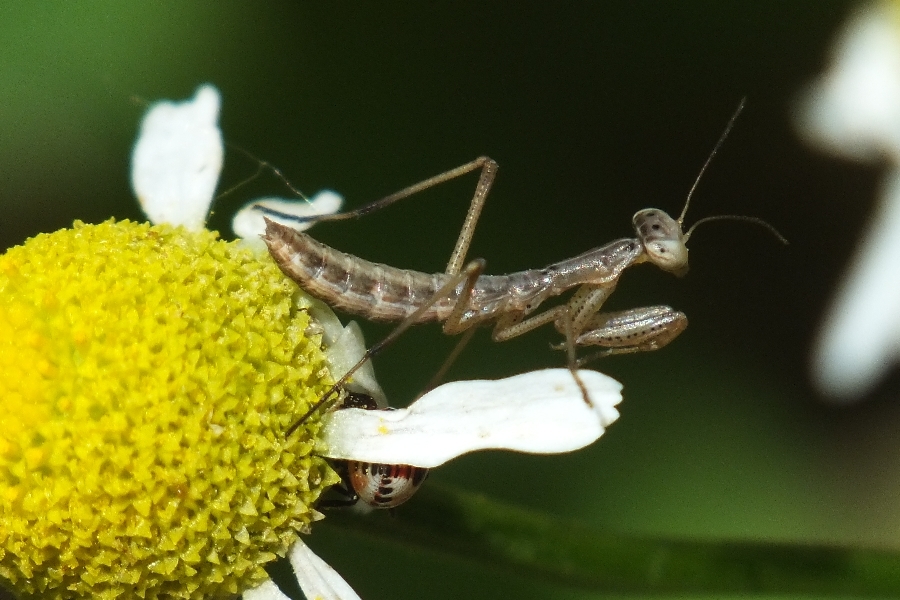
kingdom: Animalia
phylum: Arthropoda
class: Insecta
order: Mantodea
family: Mantidae
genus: Mantis
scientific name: Mantis religiosa
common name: Praying mantis
